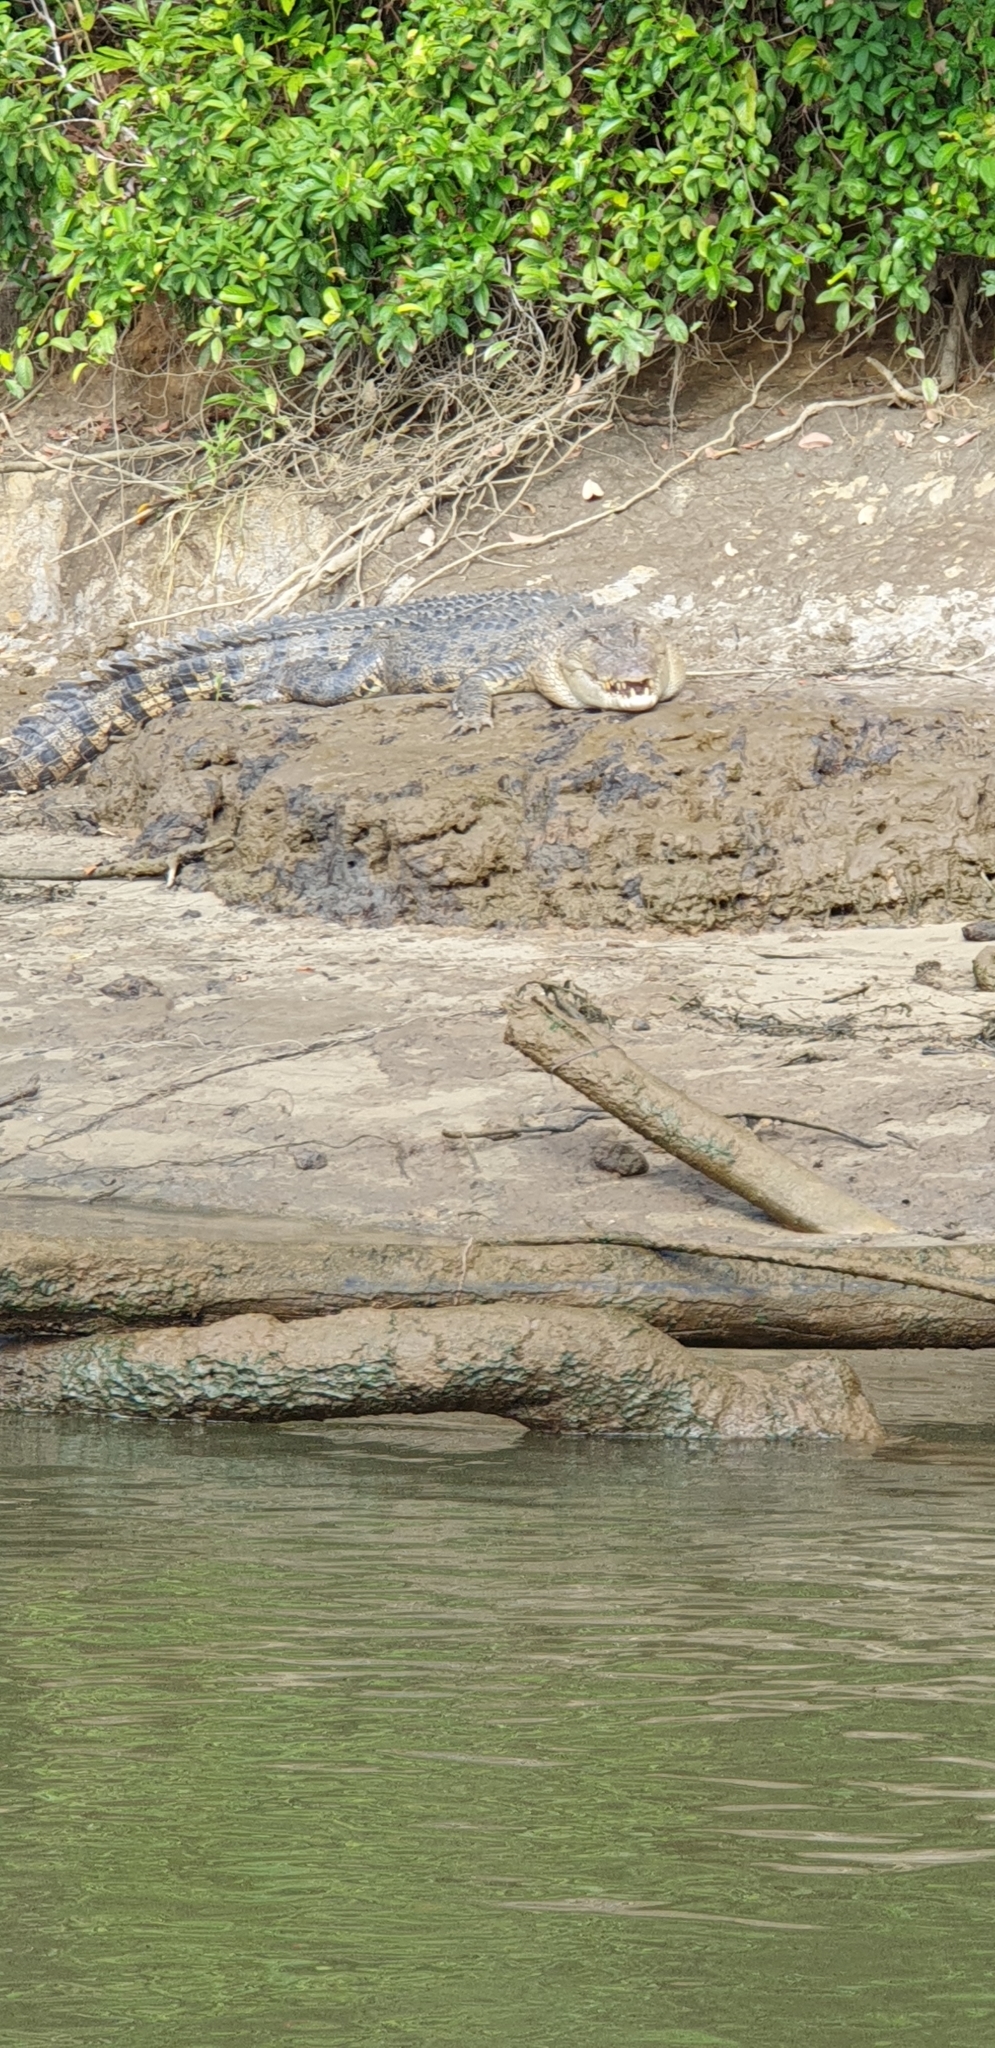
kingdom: Animalia
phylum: Chordata
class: Crocodylia
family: Crocodylidae
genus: Crocodylus
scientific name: Crocodylus porosus
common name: Saltwater crocodile
